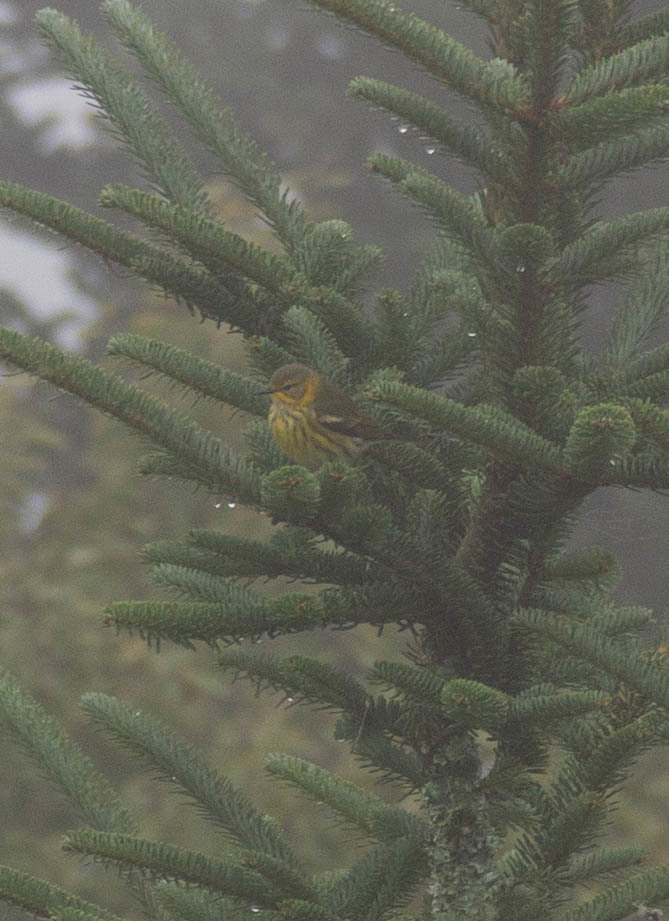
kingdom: Animalia
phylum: Chordata
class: Aves
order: Passeriformes
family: Parulidae
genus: Setophaga
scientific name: Setophaga tigrina
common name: Cape may warbler
